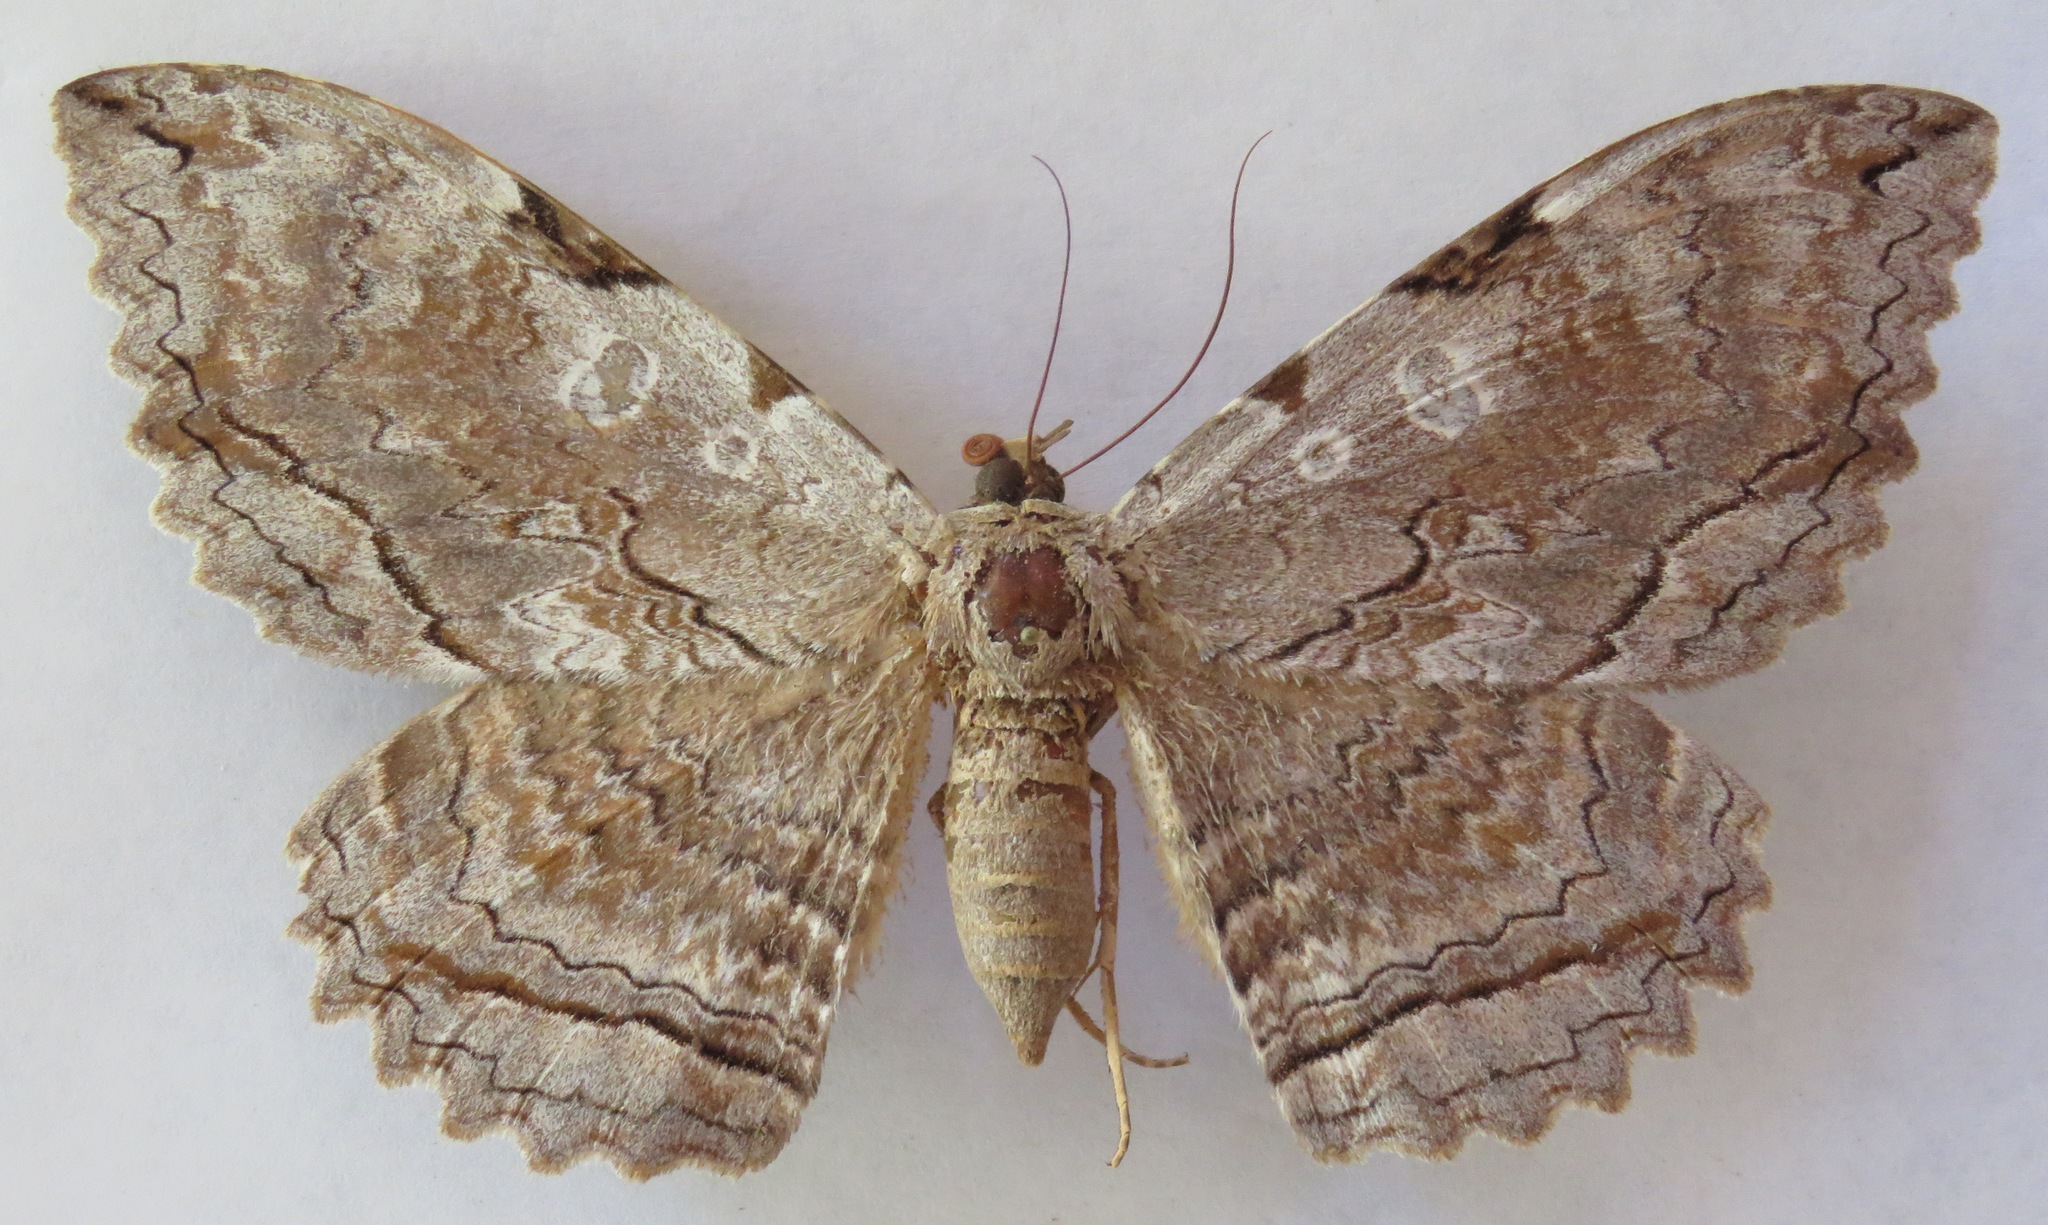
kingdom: Animalia
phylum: Arthropoda
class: Insecta
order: Lepidoptera
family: Erebidae
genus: Thysania
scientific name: Thysania zenobia
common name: Owl moth
